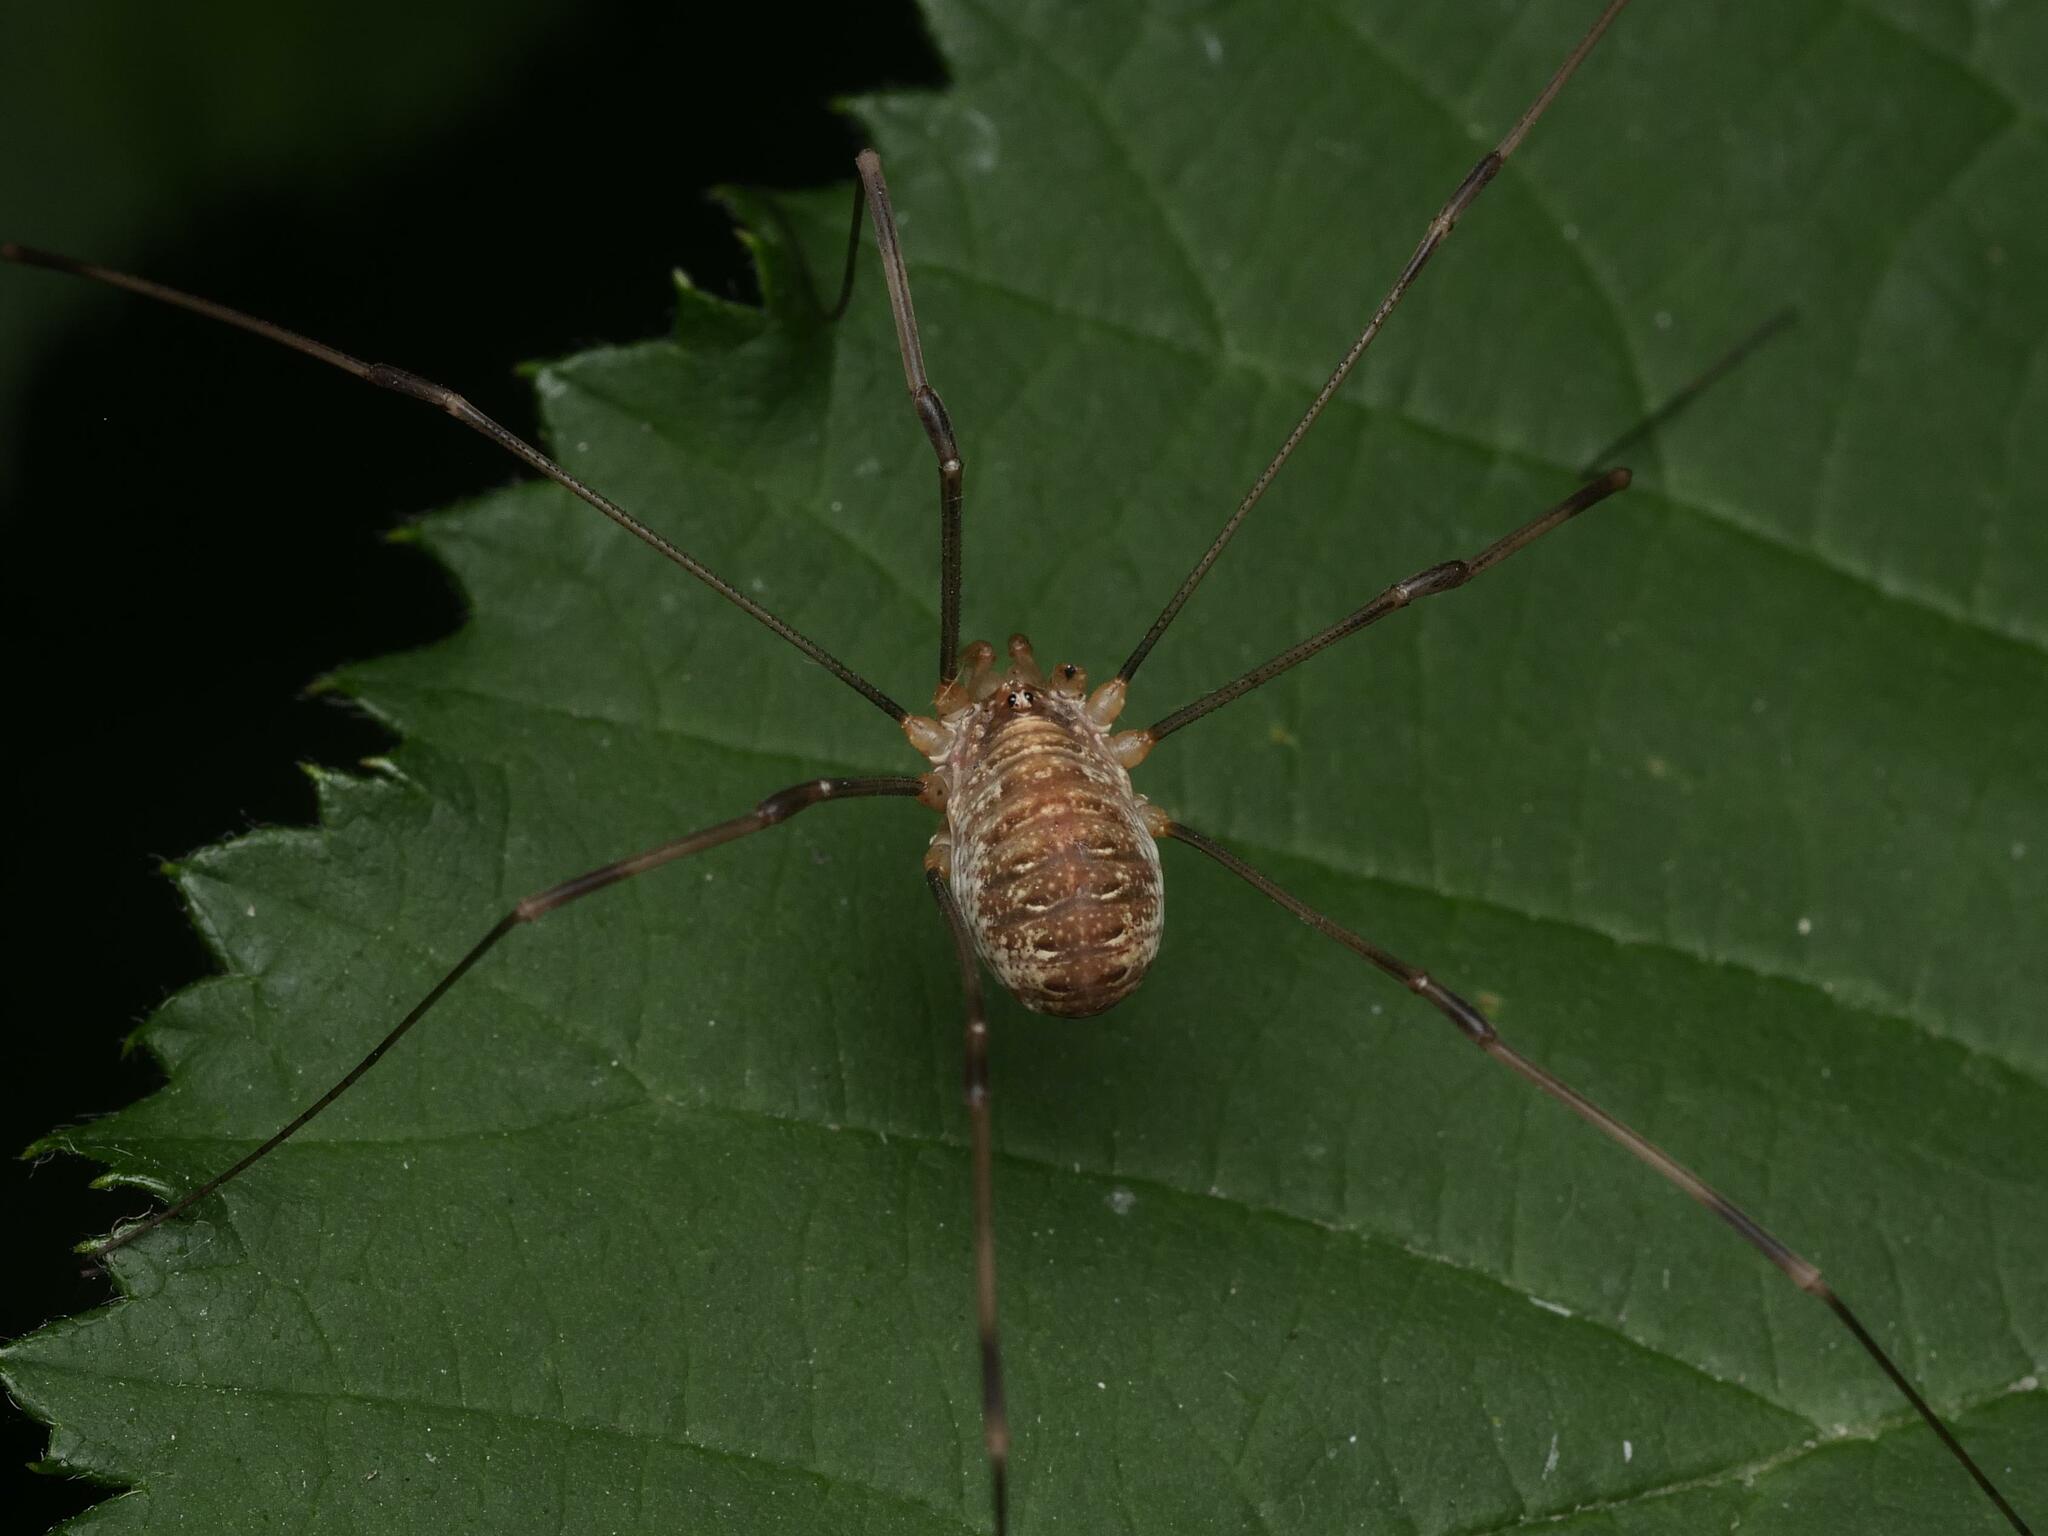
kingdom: Animalia
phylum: Arthropoda
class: Arachnida
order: Opiliones
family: Phalangiidae
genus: Opilio
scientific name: Opilio canestrinii
